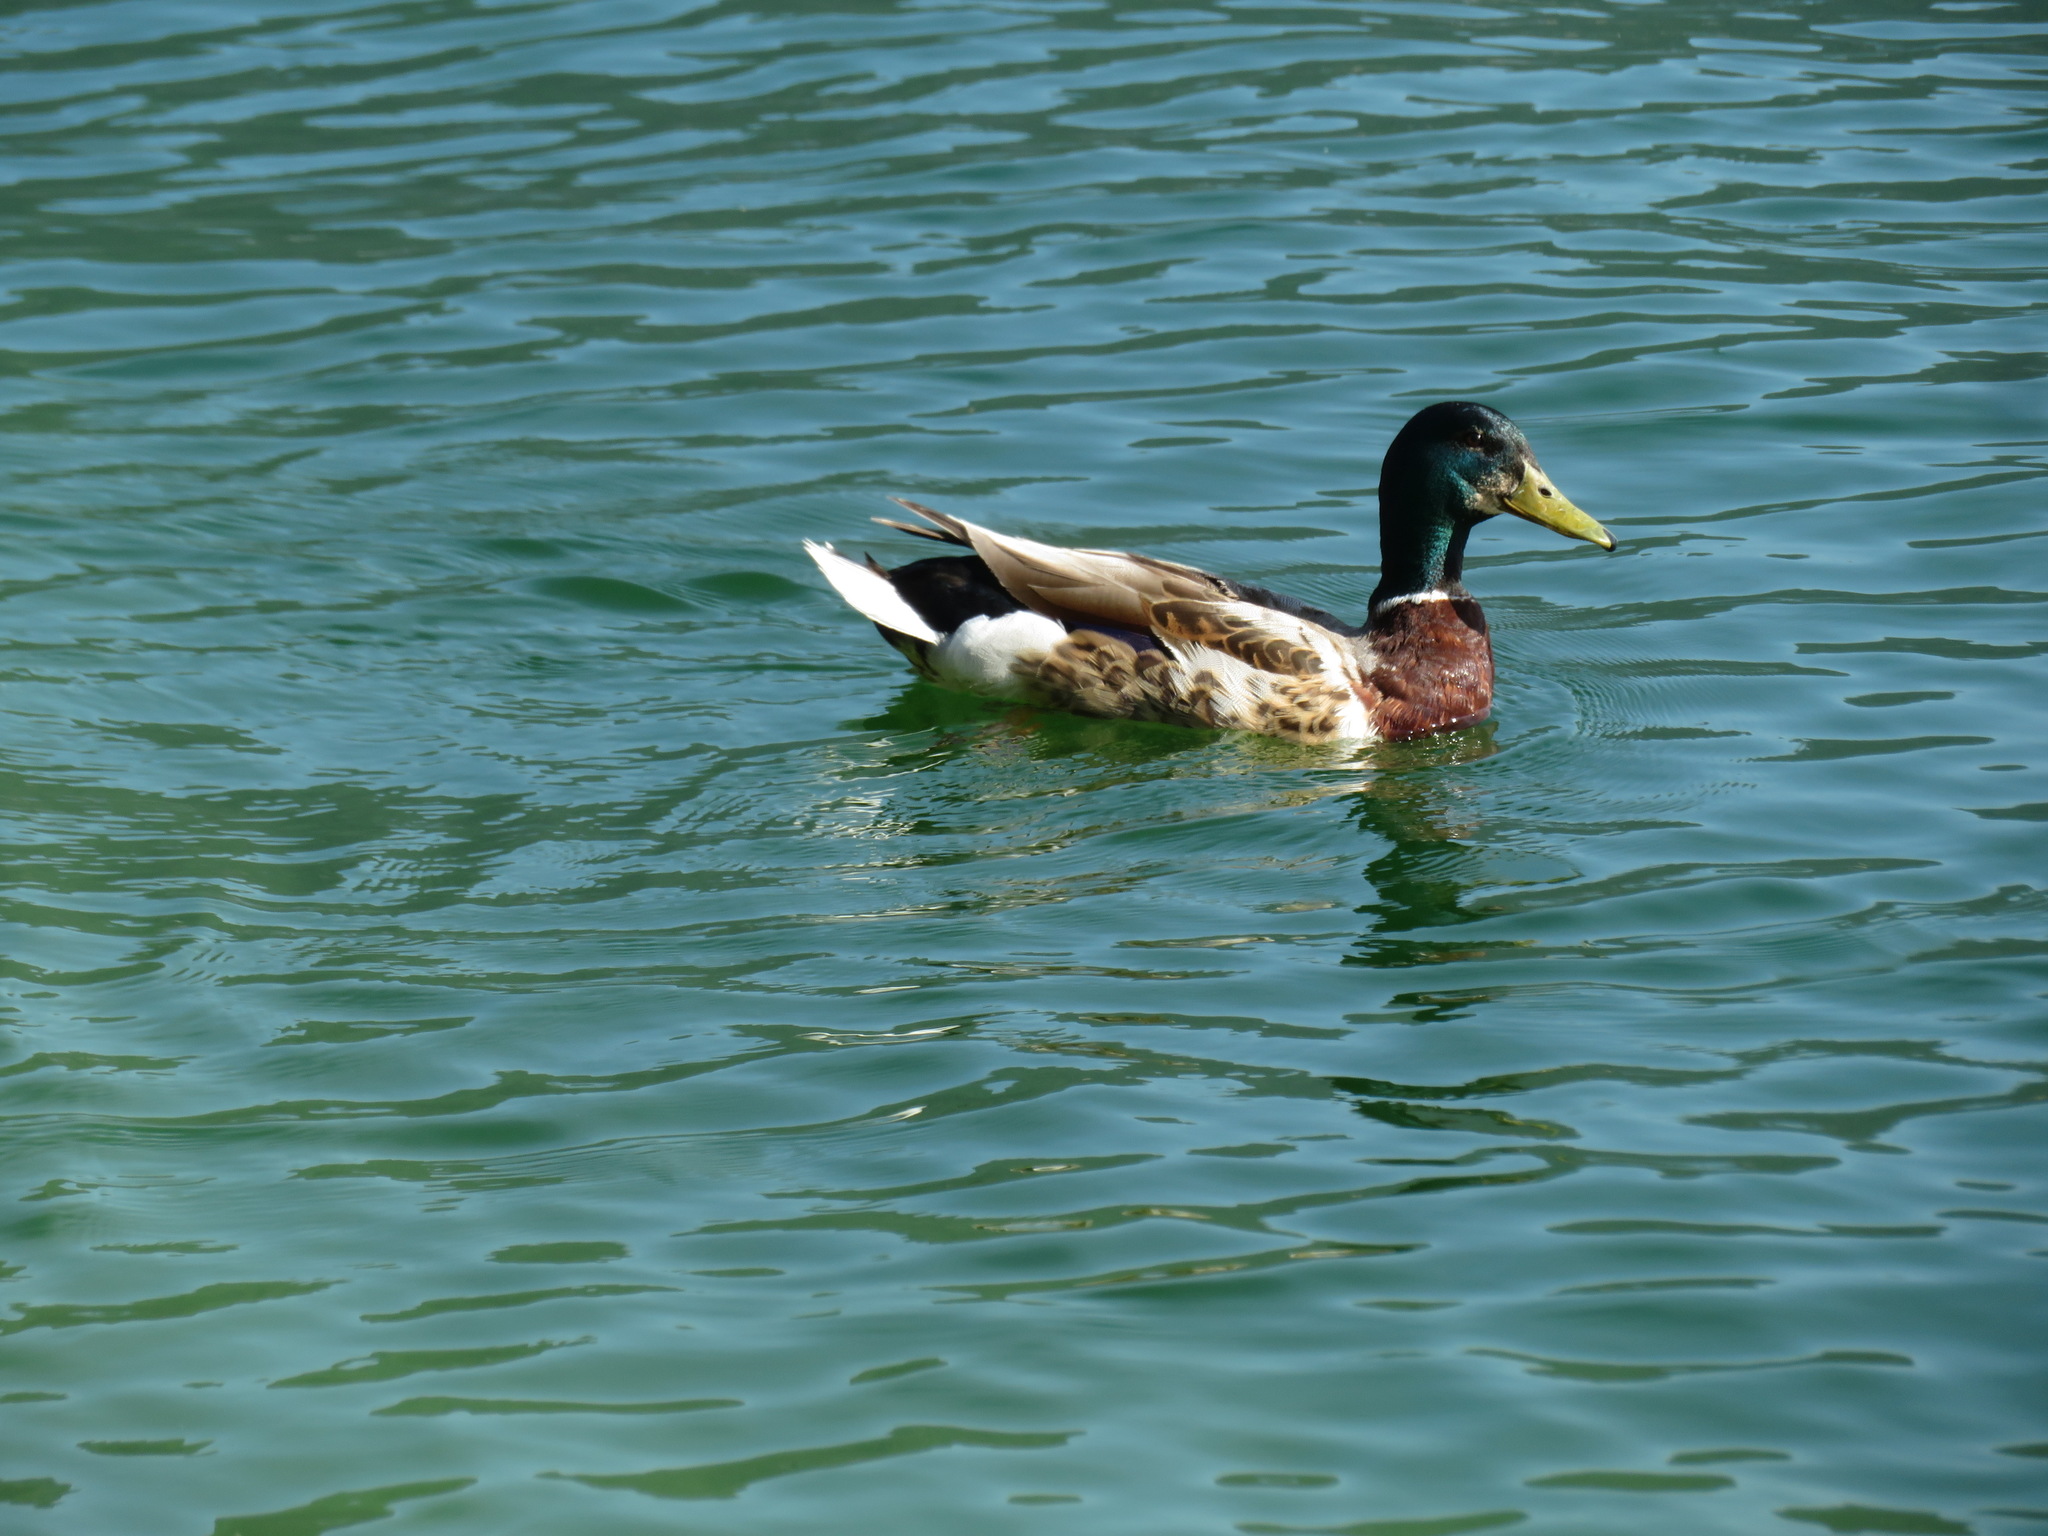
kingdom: Animalia
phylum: Chordata
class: Aves
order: Anseriformes
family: Anatidae
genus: Anas
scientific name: Anas platyrhynchos
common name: Mallard
